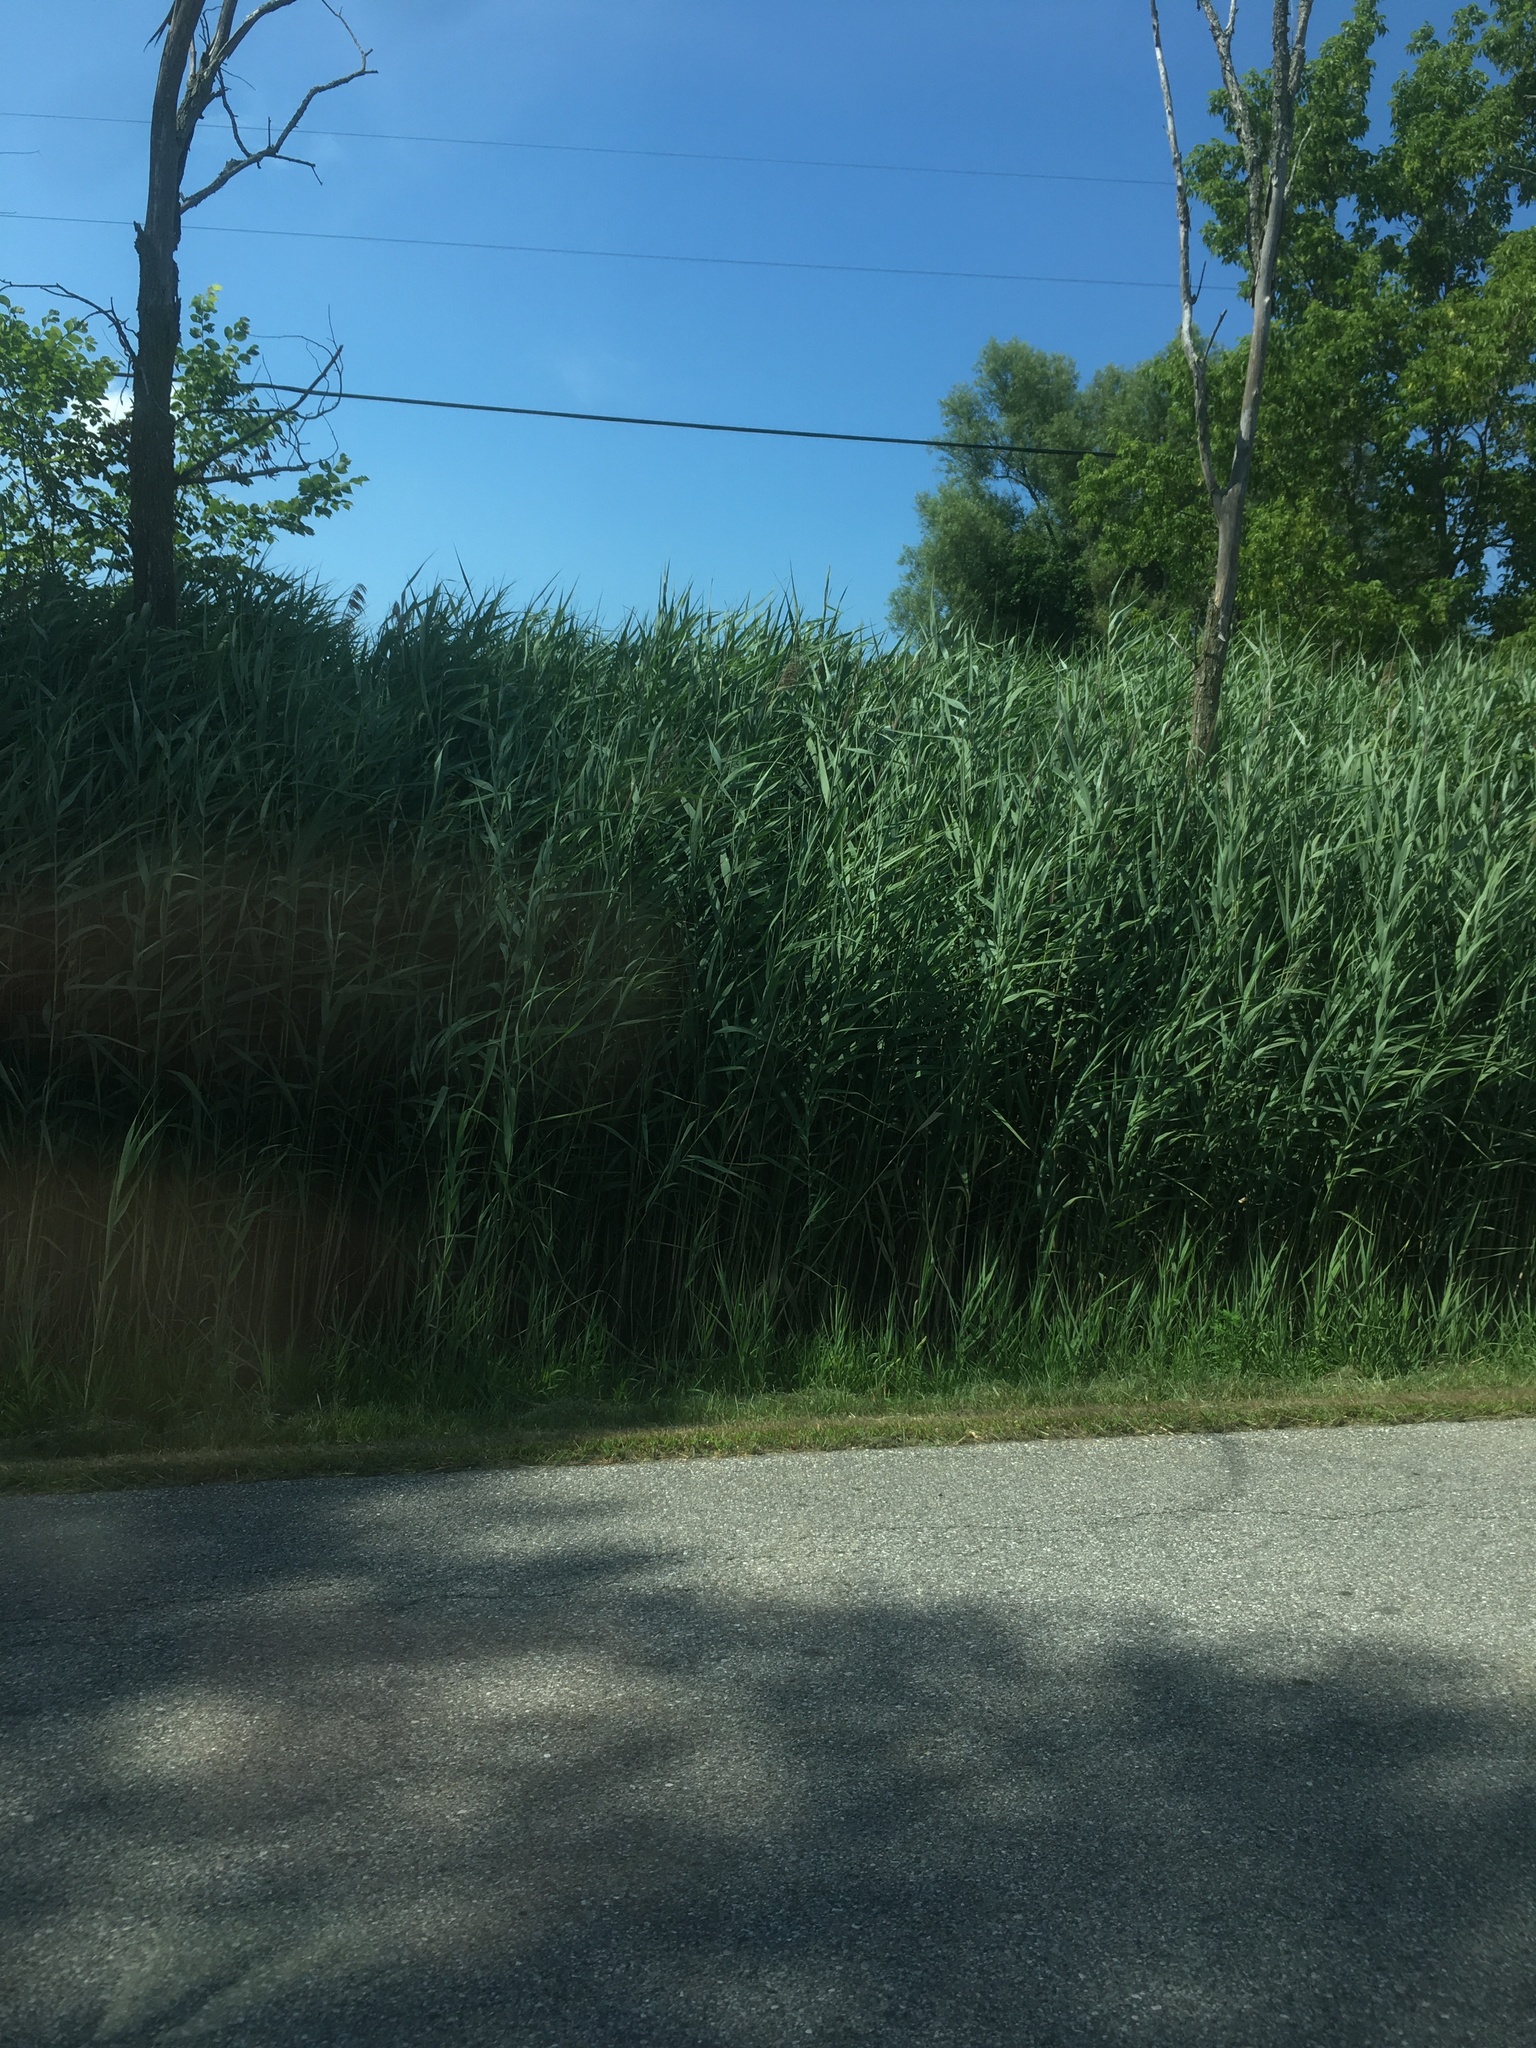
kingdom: Plantae
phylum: Tracheophyta
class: Liliopsida
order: Poales
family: Poaceae
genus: Phragmites
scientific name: Phragmites australis
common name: Common reed
